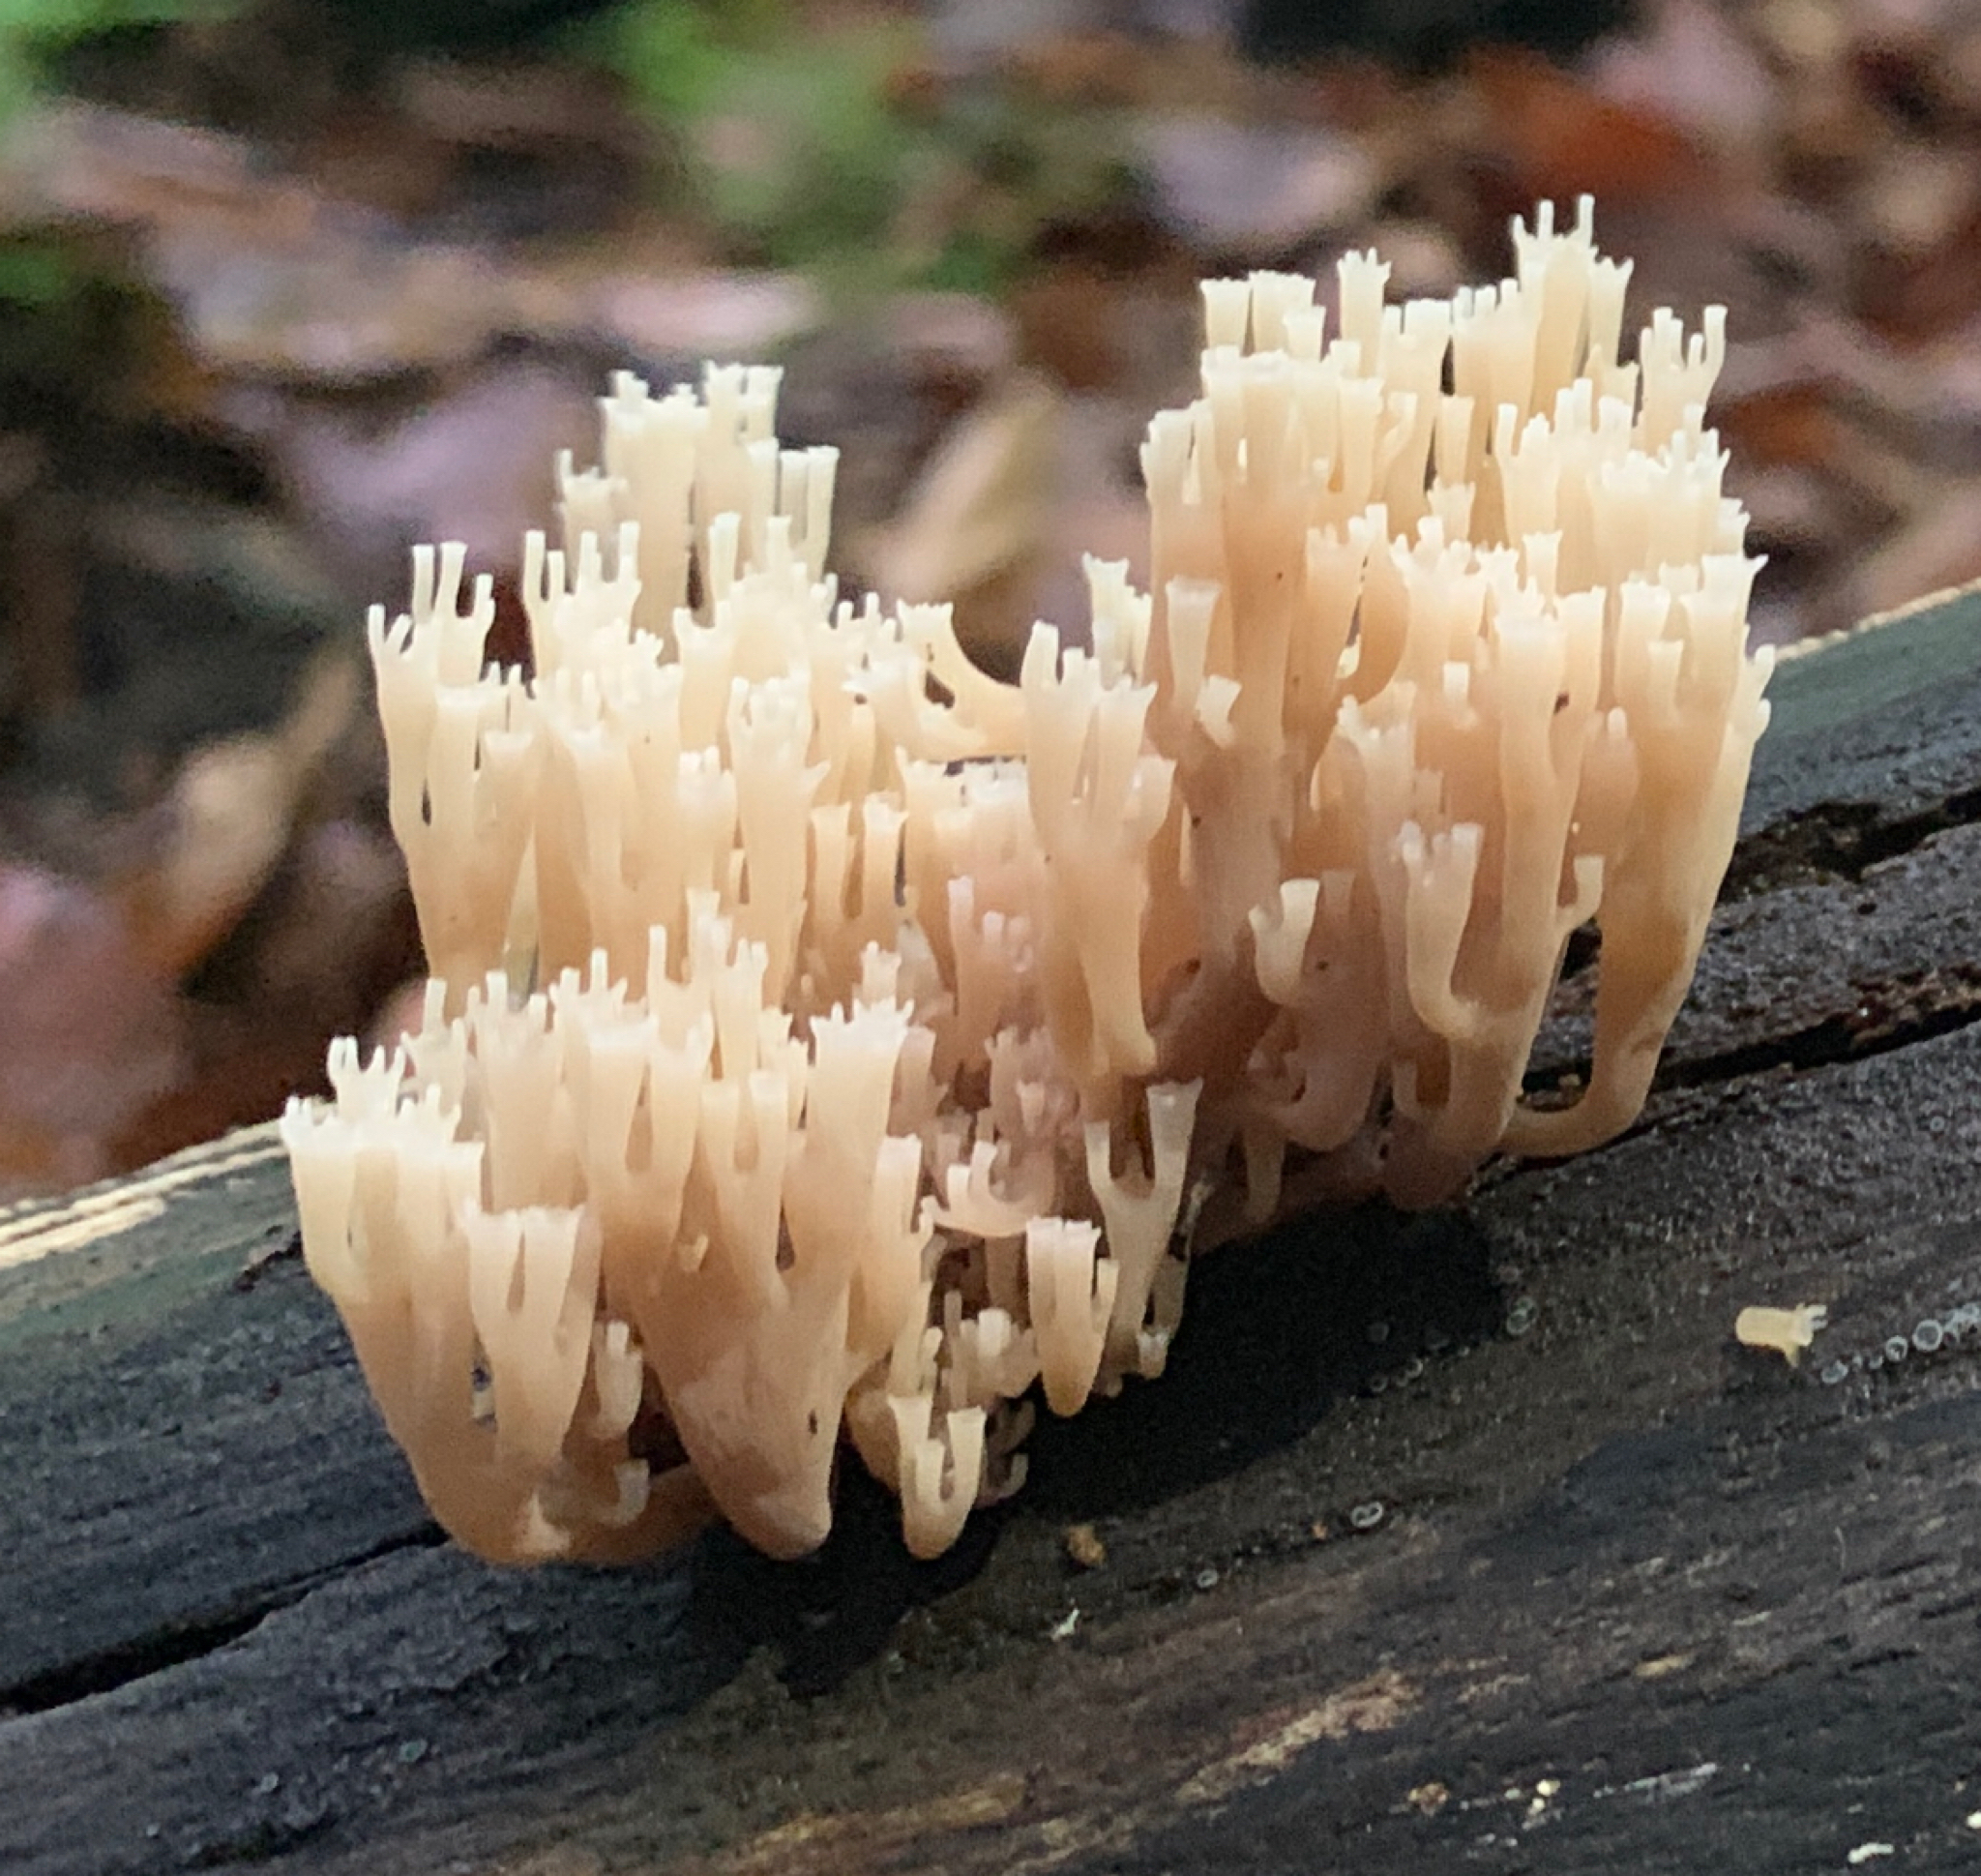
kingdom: Fungi
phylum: Basidiomycota
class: Agaricomycetes
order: Russulales
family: Auriscalpiaceae
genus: Artomyces
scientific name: Artomyces pyxidatus
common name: Crown-tipped coral fungus
